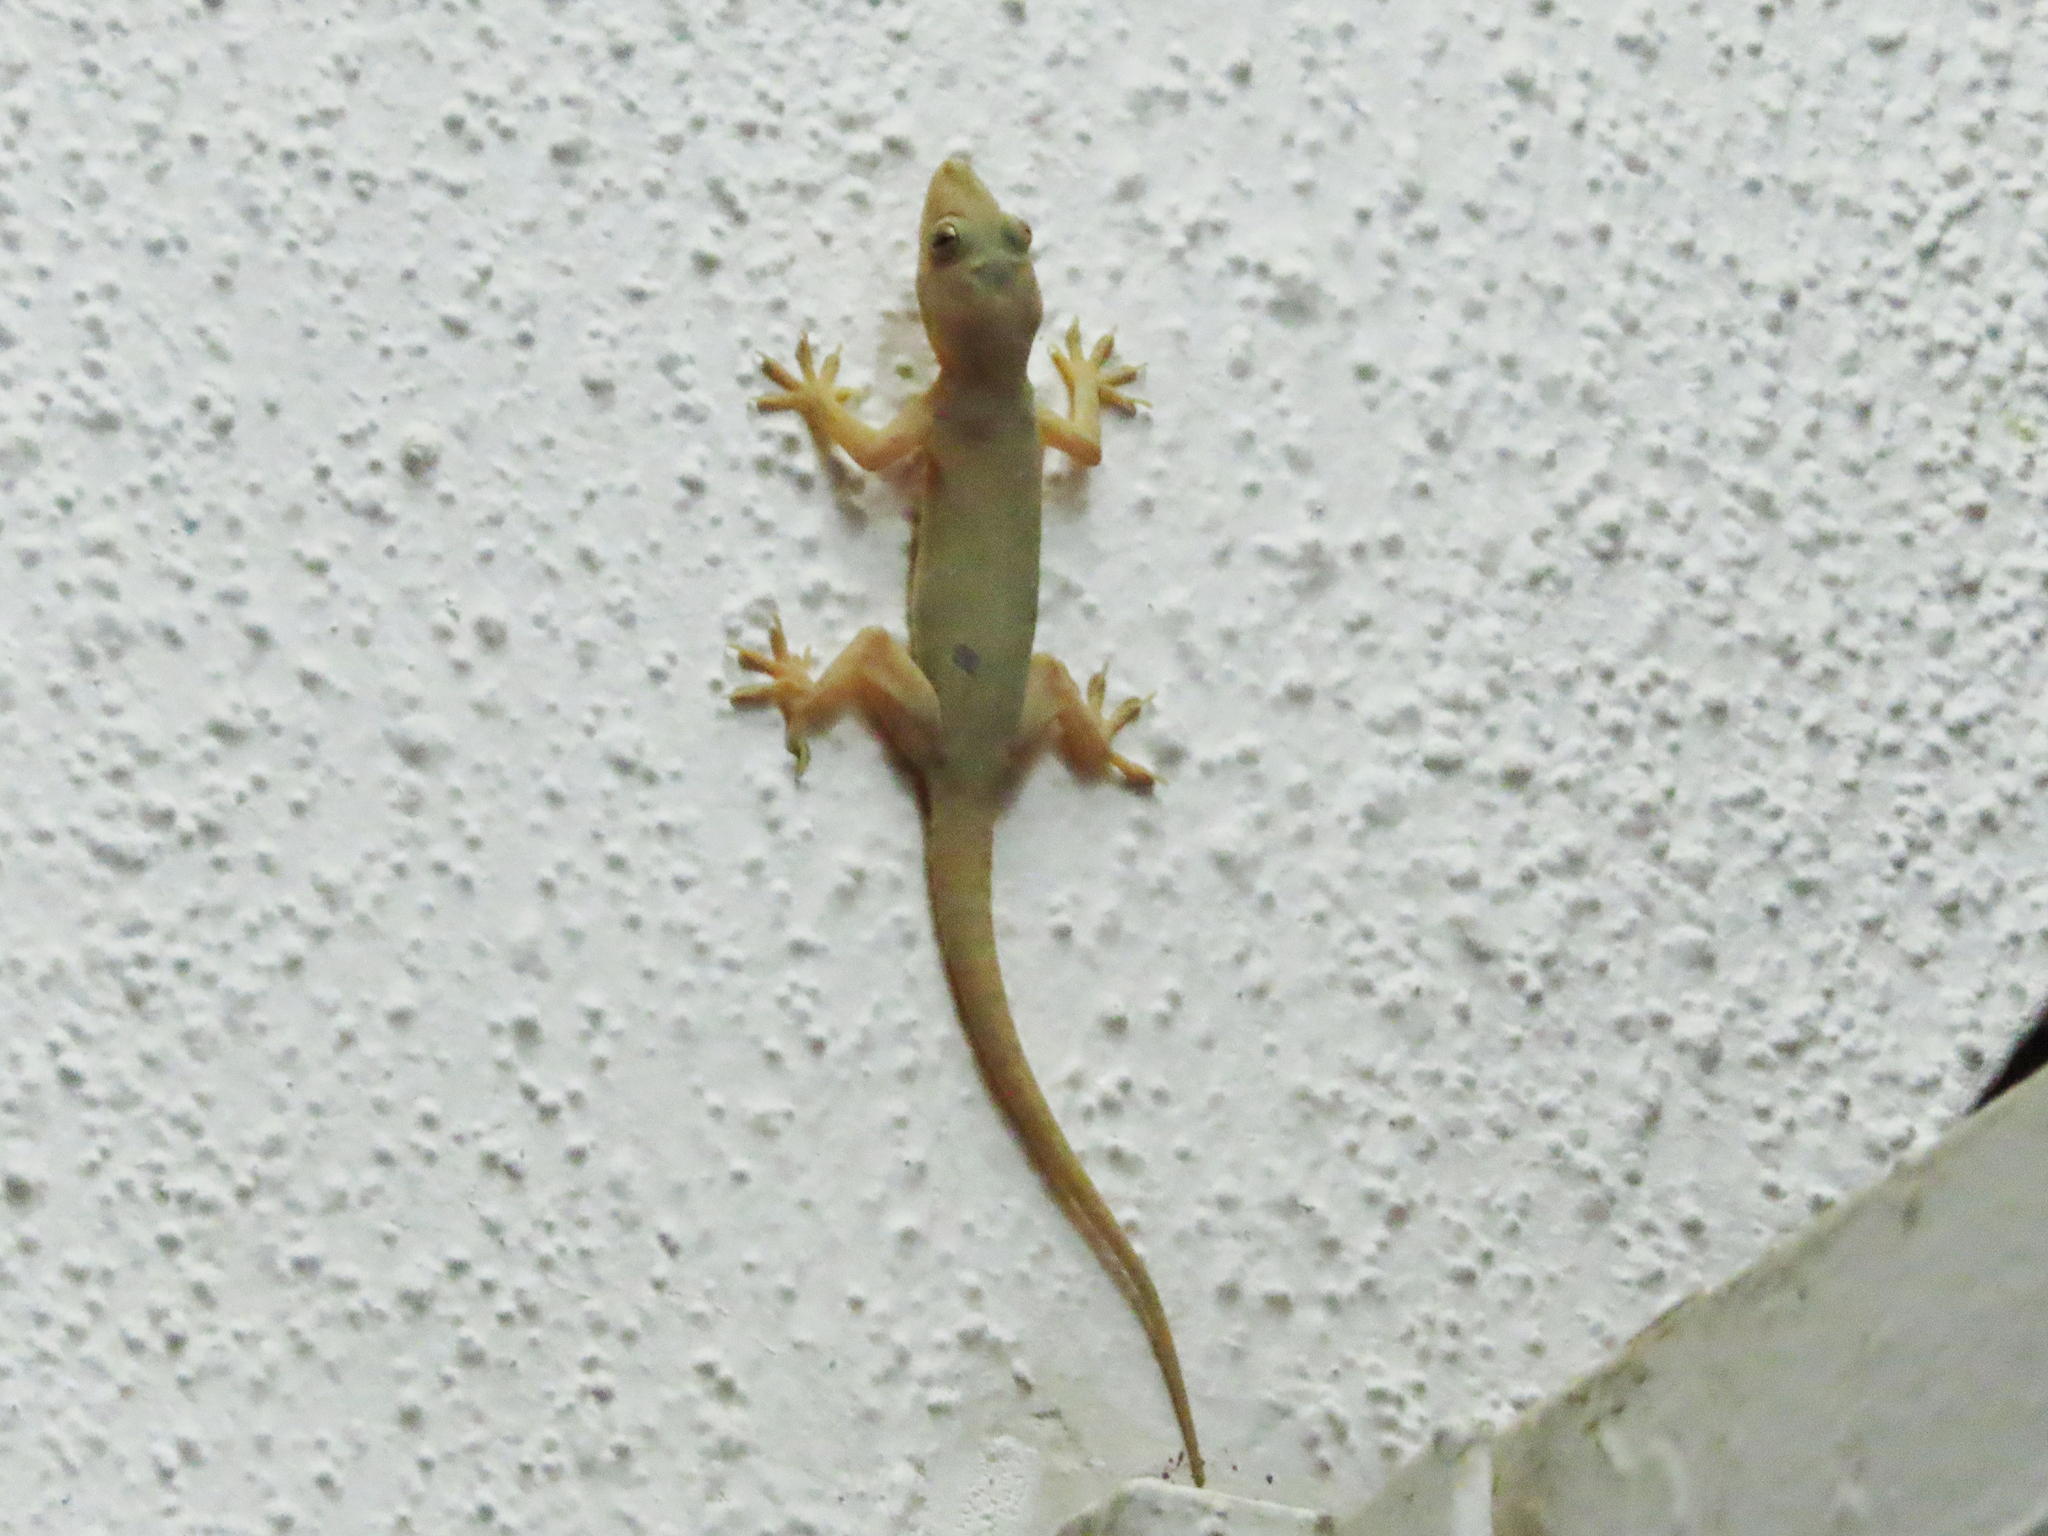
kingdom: Animalia
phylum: Chordata
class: Squamata
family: Gekkonidae
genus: Hemidactylus
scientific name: Hemidactylus flaviviridis
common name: Northern house gecko
